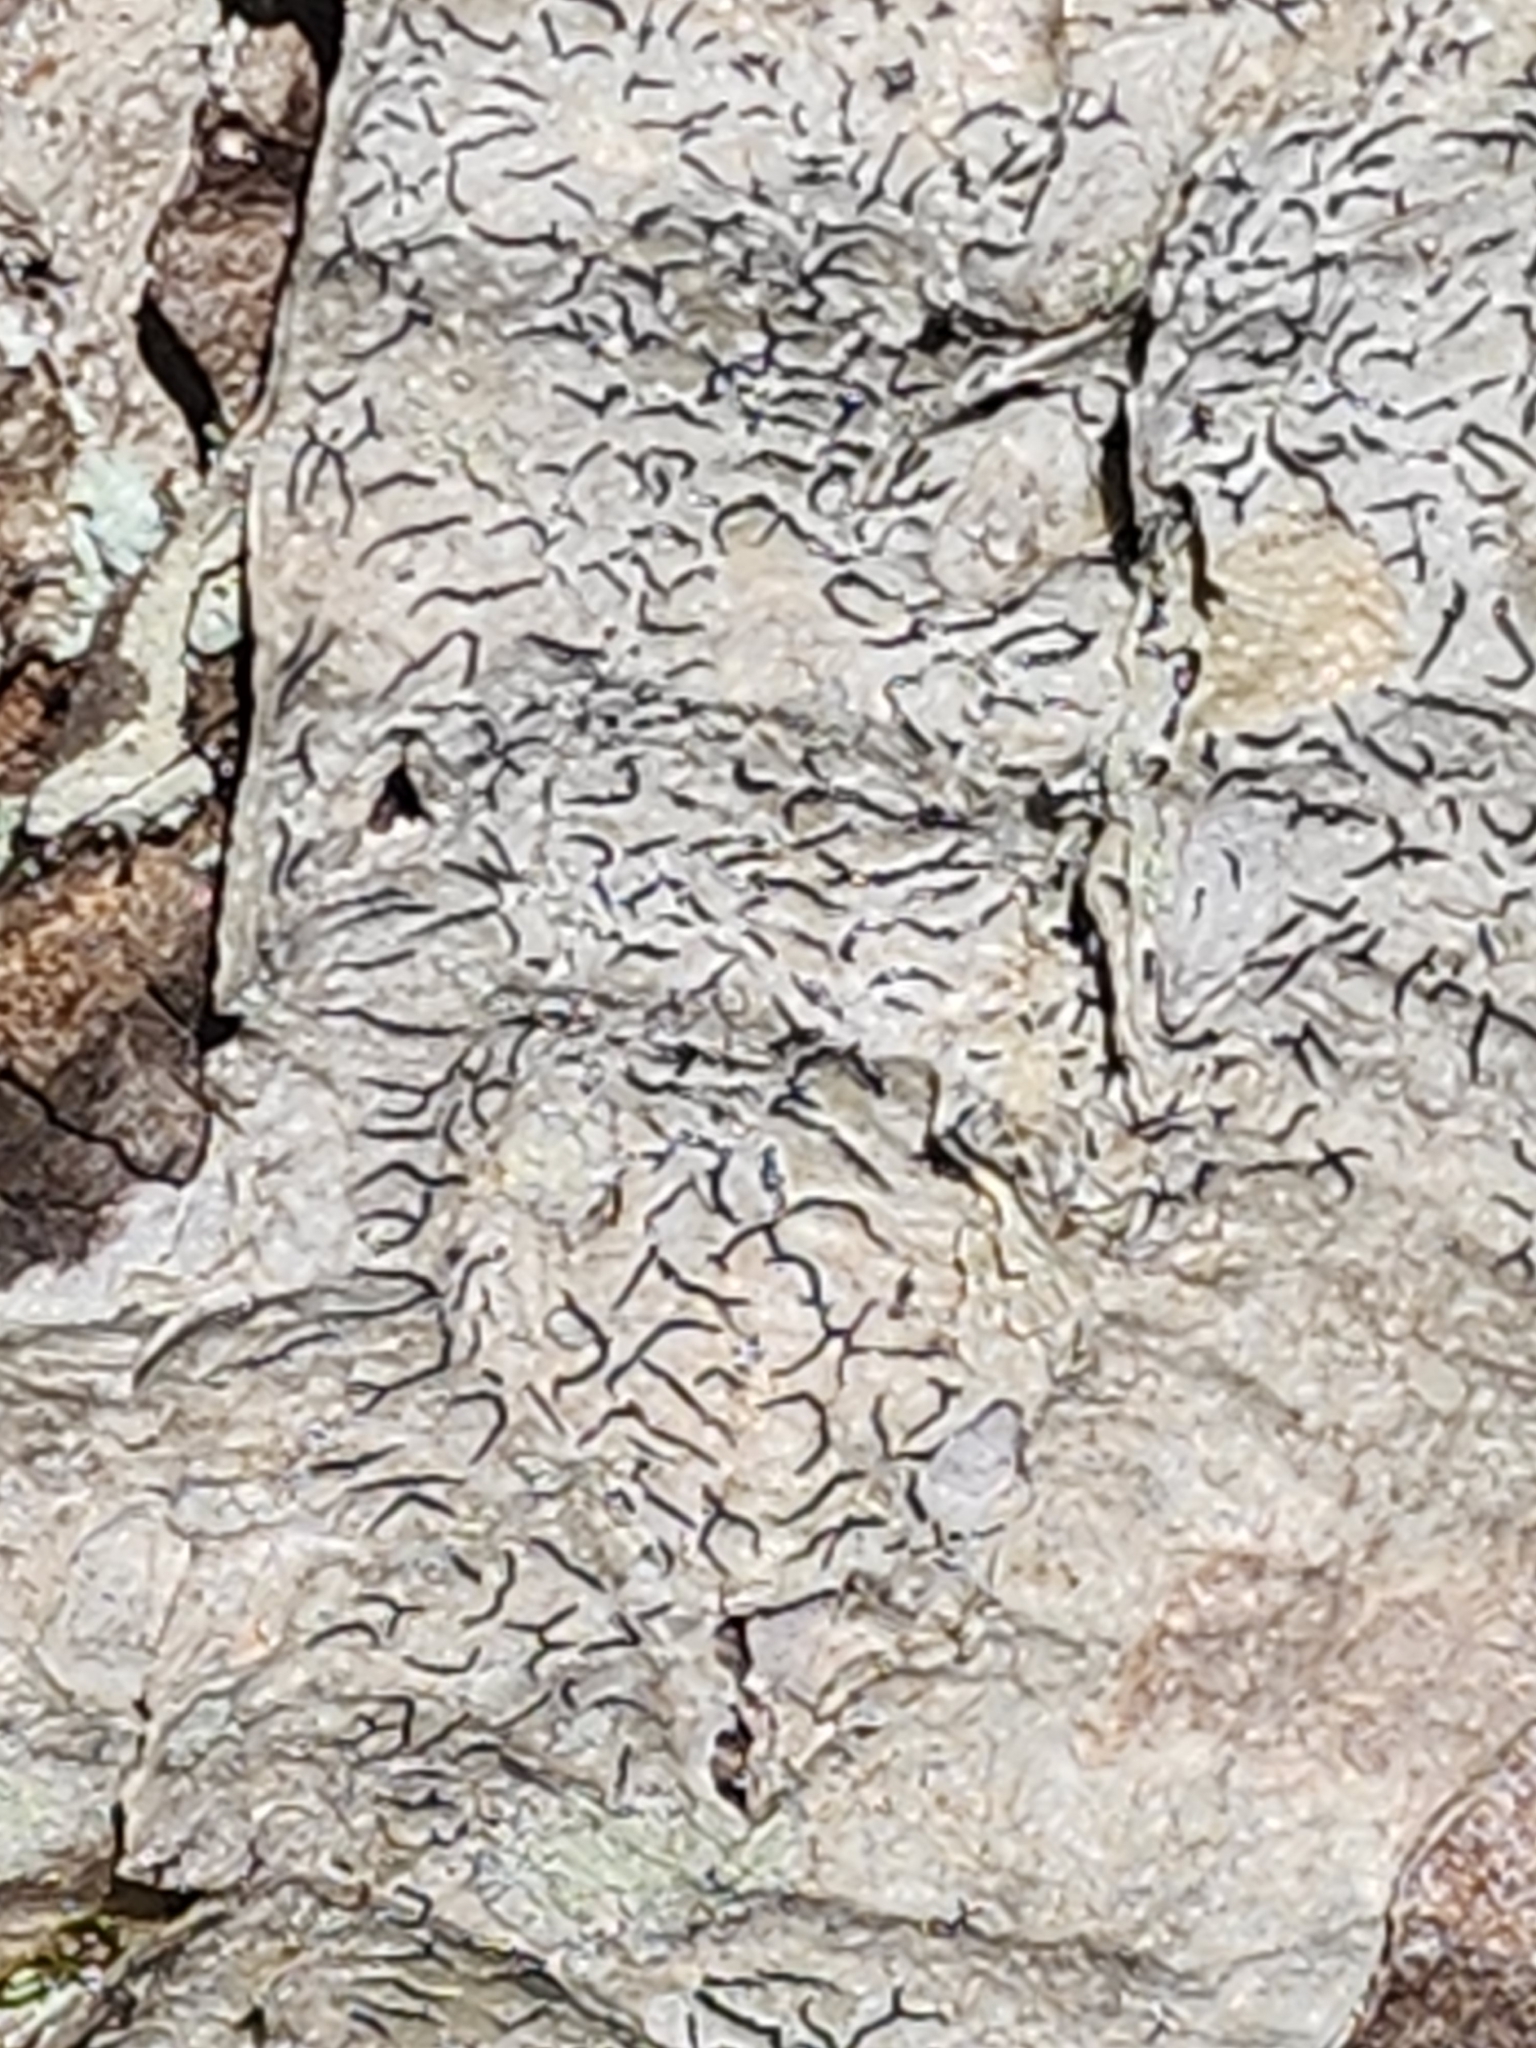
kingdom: Fungi
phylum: Ascomycota
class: Lecanoromycetes
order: Ostropales
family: Graphidaceae
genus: Graphis
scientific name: Graphis scripta
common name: Script lichen
